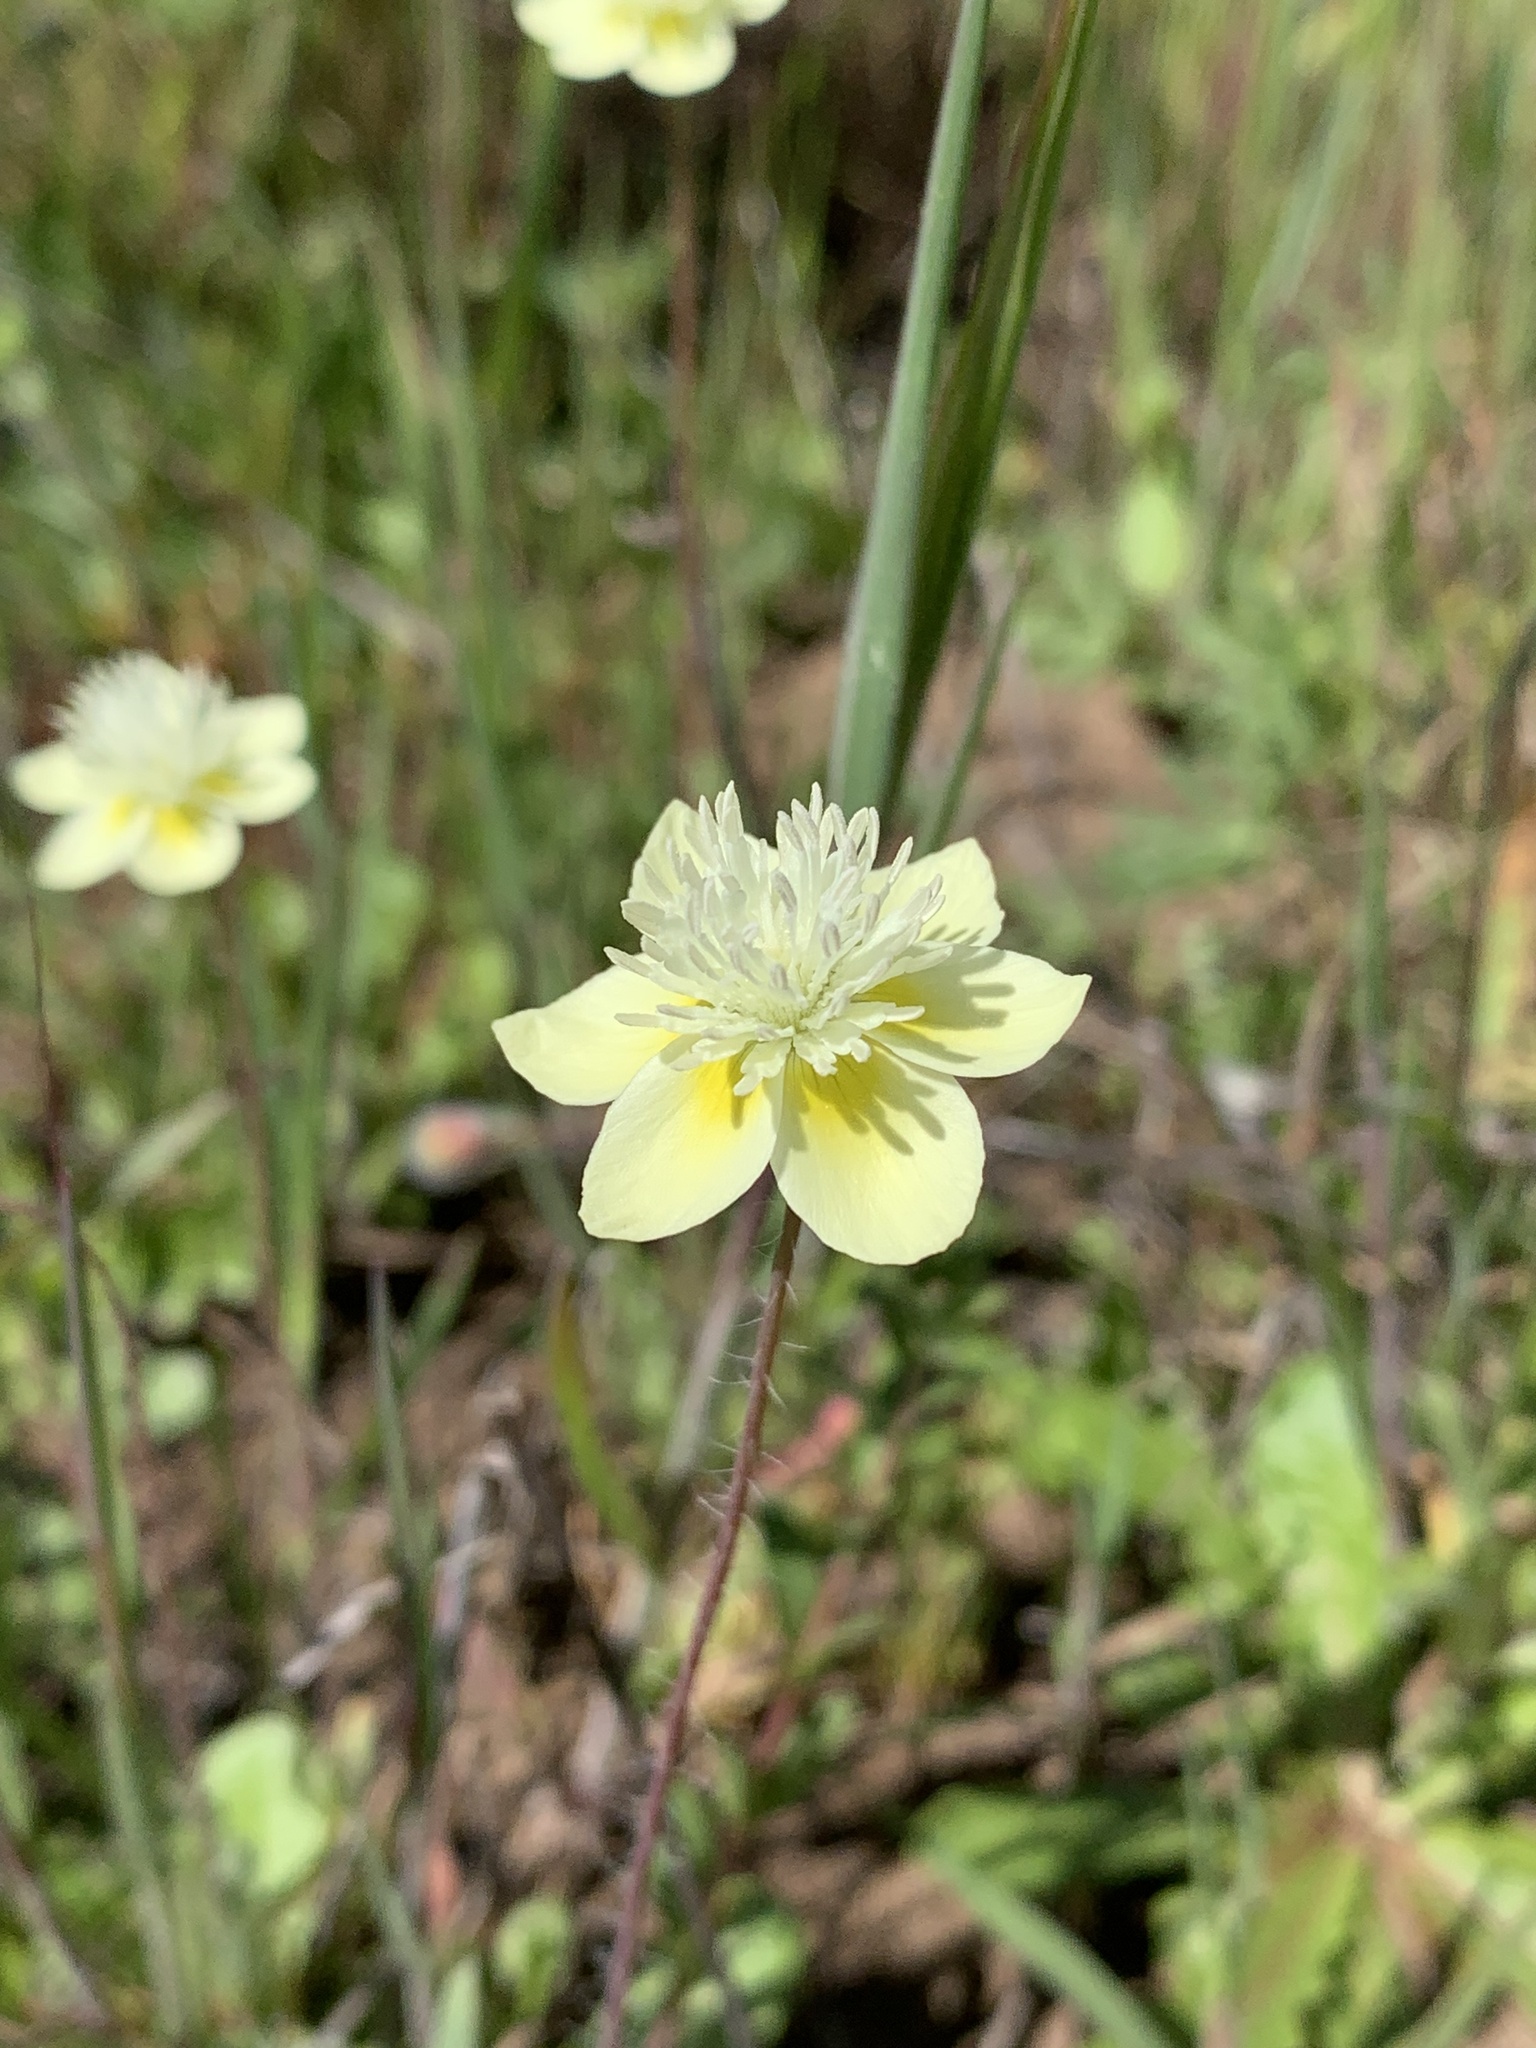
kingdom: Plantae
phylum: Tracheophyta
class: Magnoliopsida
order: Ranunculales
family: Papaveraceae
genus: Platystemon
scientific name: Platystemon californicus
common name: Cream-cups
